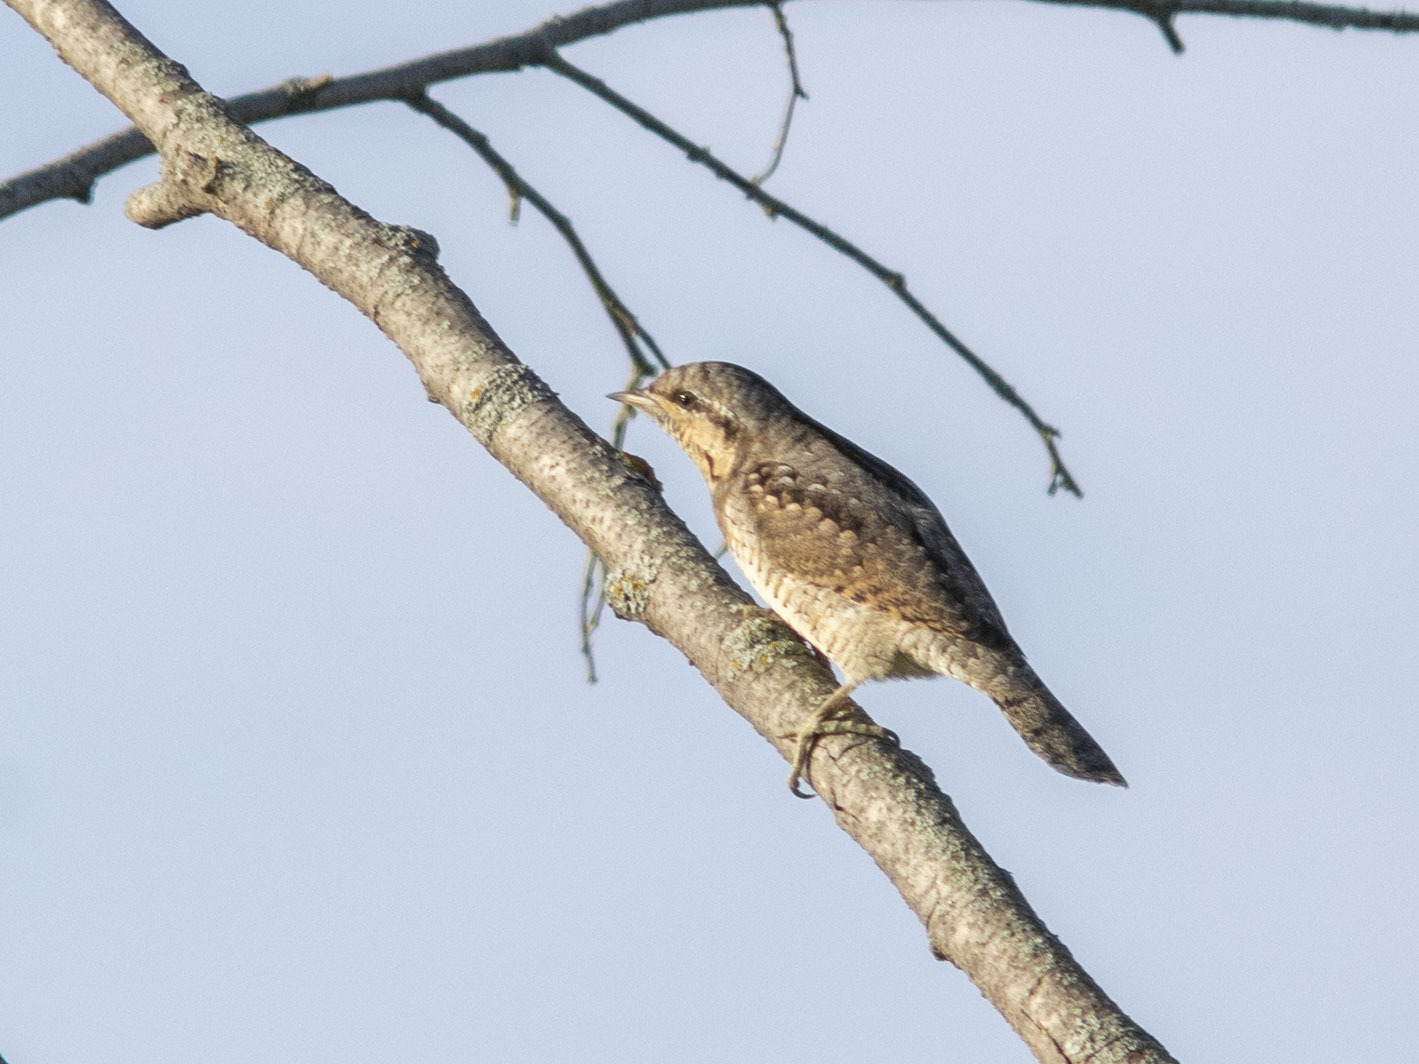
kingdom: Animalia
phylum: Chordata
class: Aves
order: Piciformes
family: Picidae
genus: Jynx
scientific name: Jynx torquilla
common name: Eurasian wryneck
